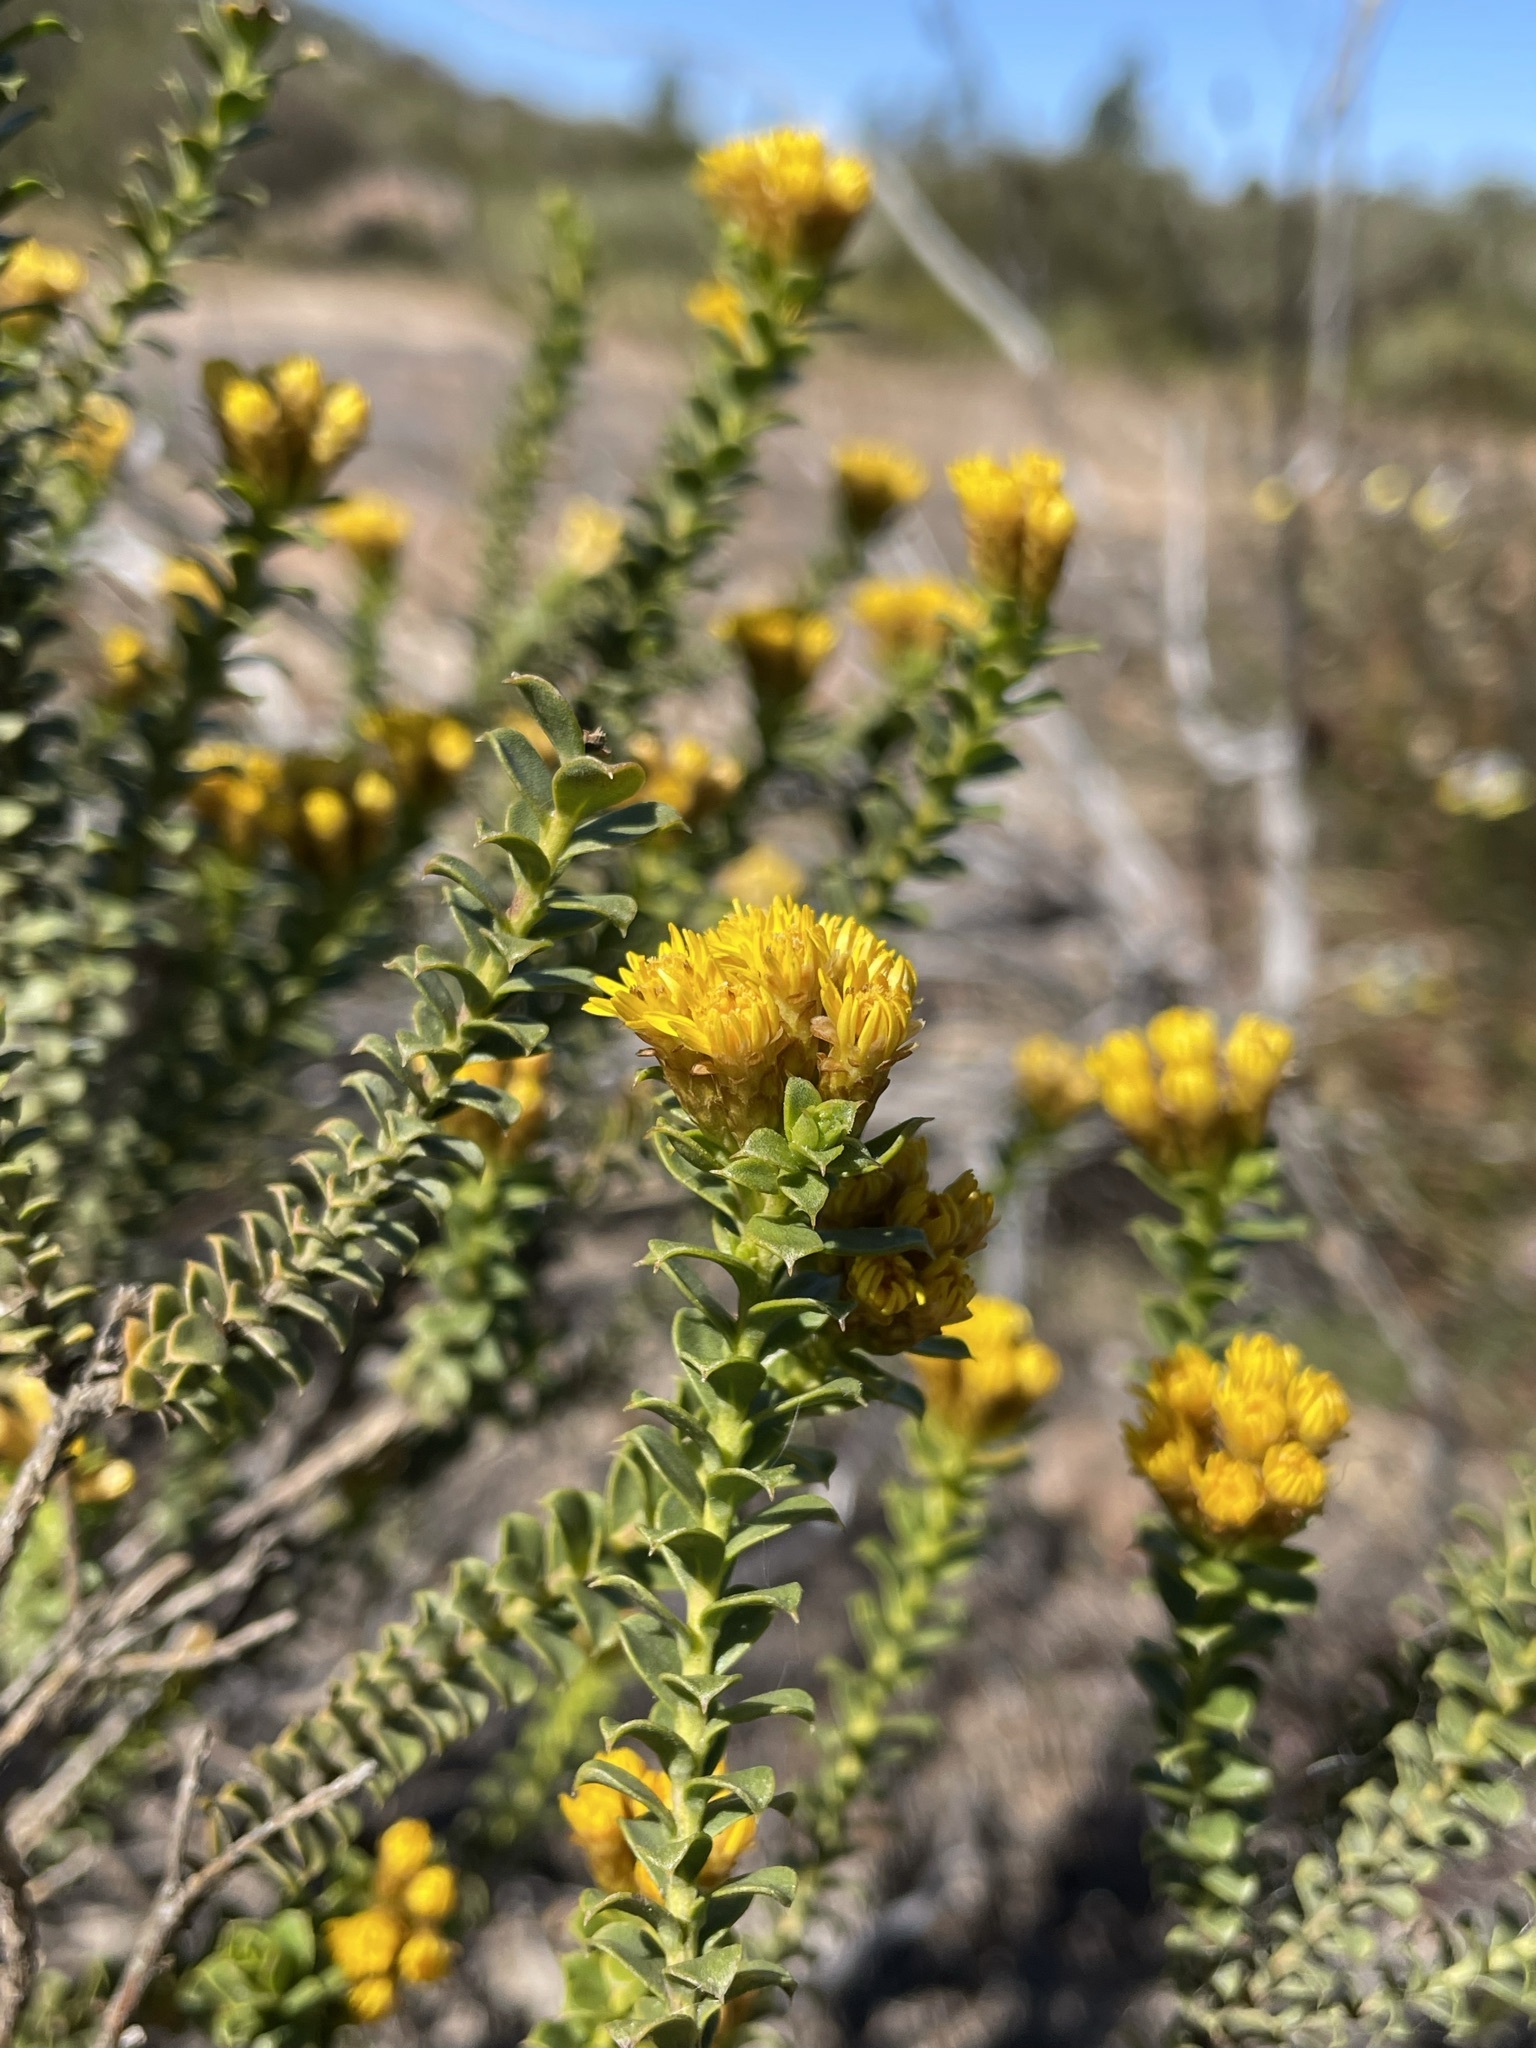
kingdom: Plantae
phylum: Tracheophyta
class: Magnoliopsida
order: Asterales
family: Asteraceae
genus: Oedera
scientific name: Oedera squarrosa
